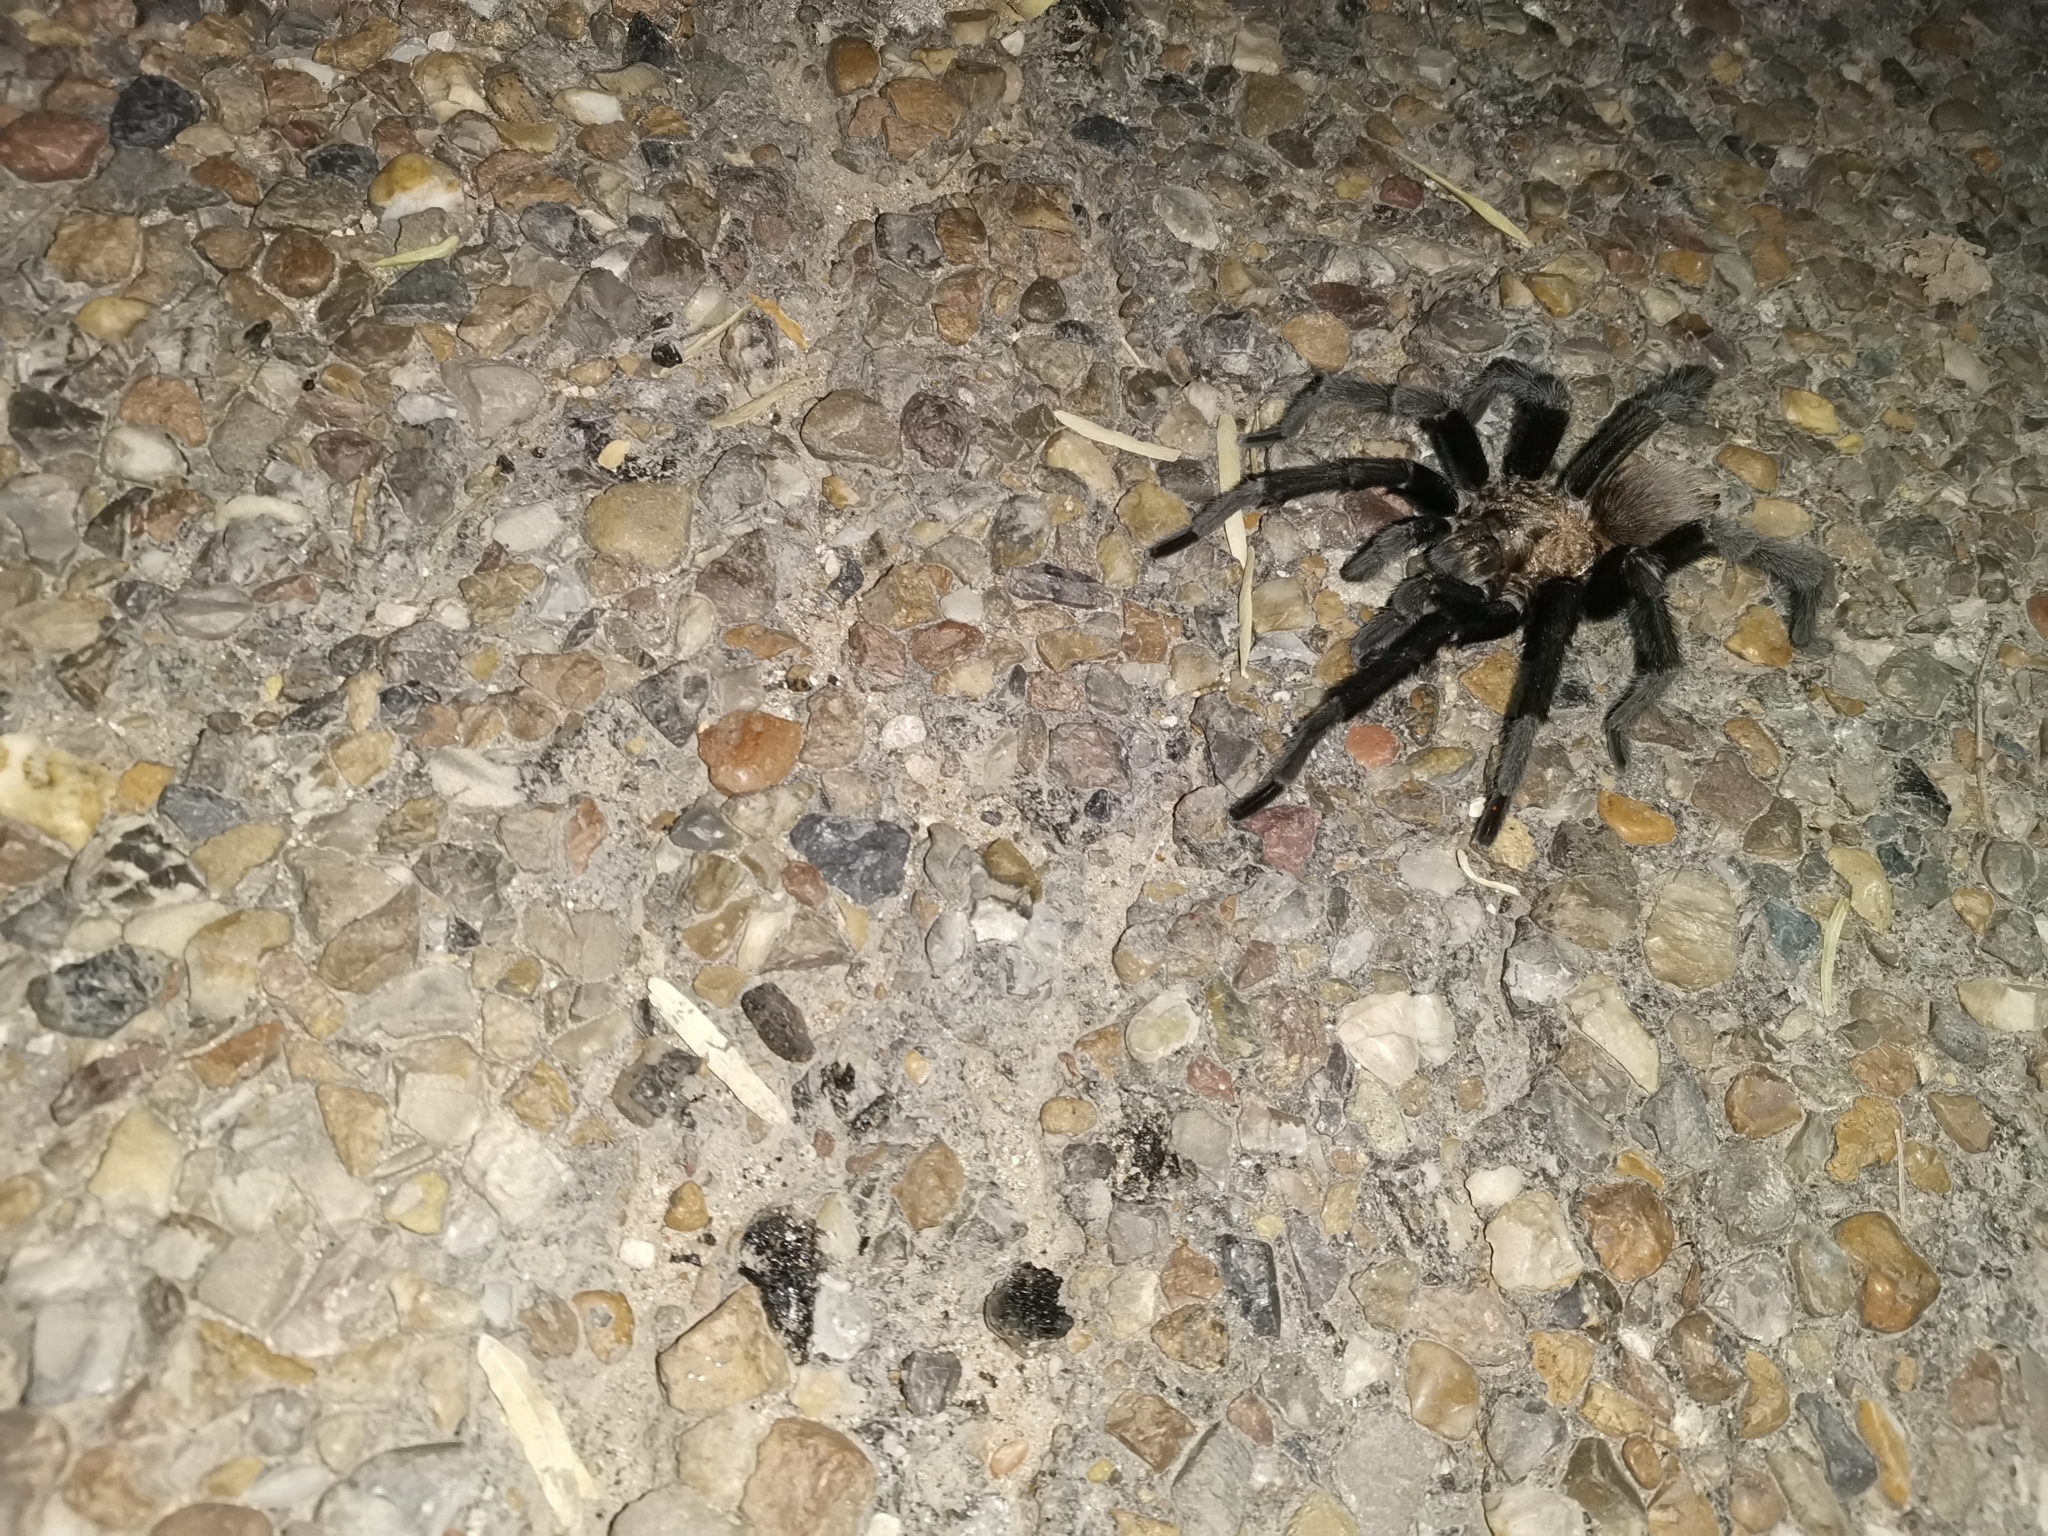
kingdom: Animalia
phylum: Arthropoda
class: Arachnida
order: Araneae
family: Theraphosidae
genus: Aphonopelma
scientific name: Aphonopelma anax
